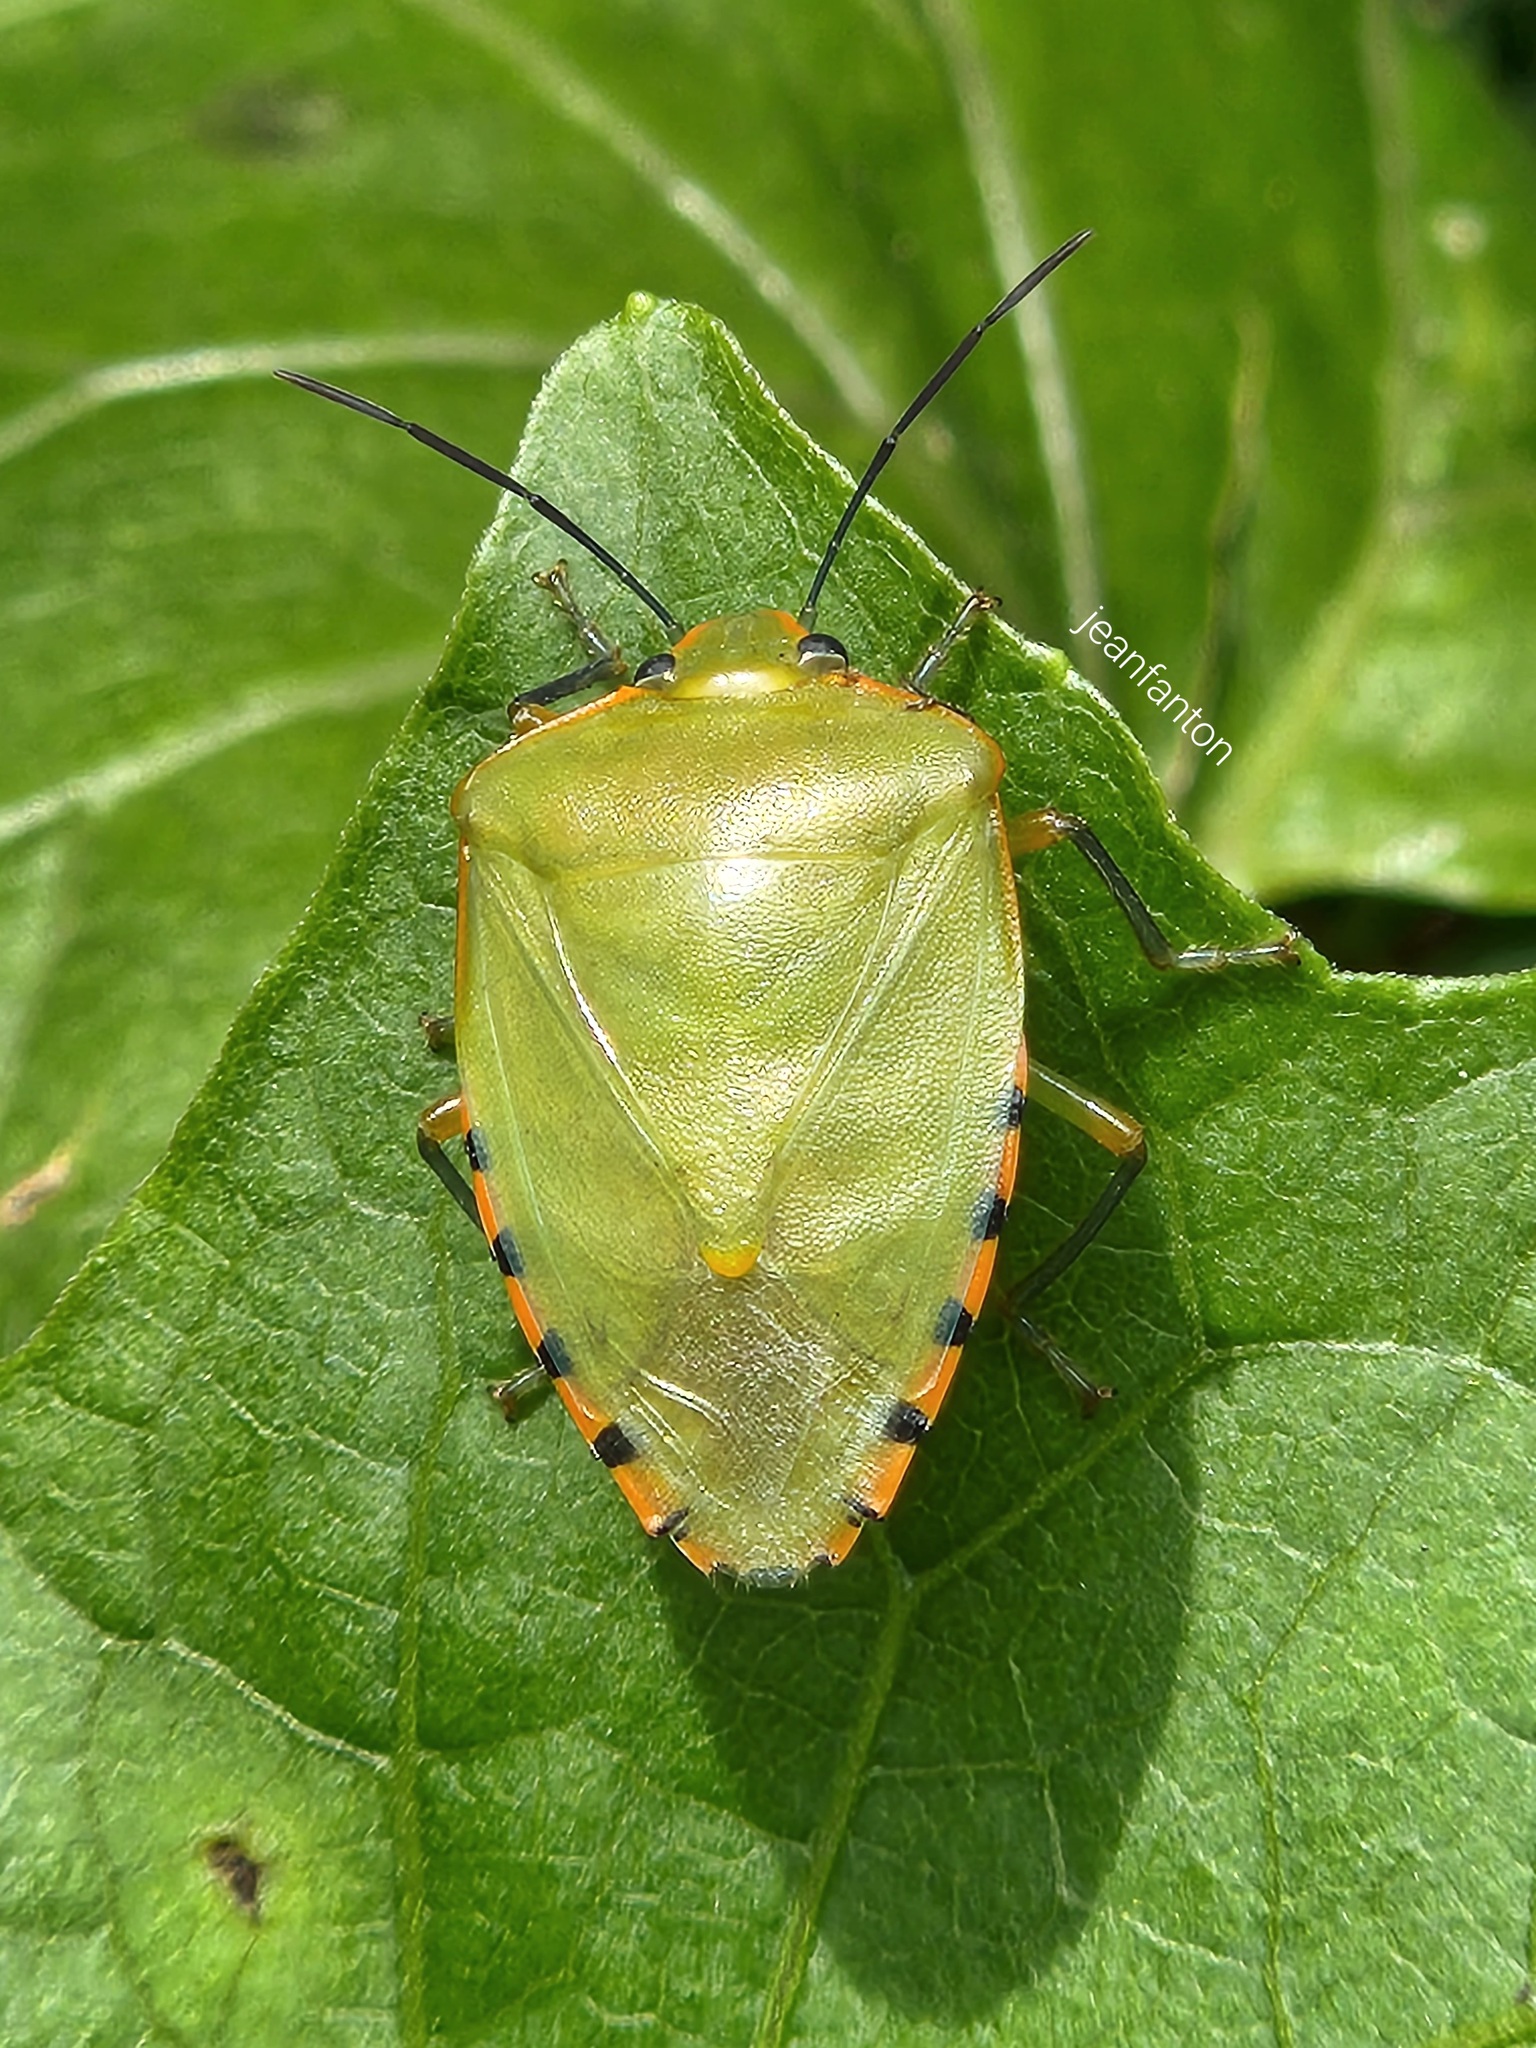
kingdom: Animalia
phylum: Arthropoda
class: Insecta
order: Hemiptera
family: Pentatomidae
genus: Chinavia
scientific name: Chinavia runaspis
